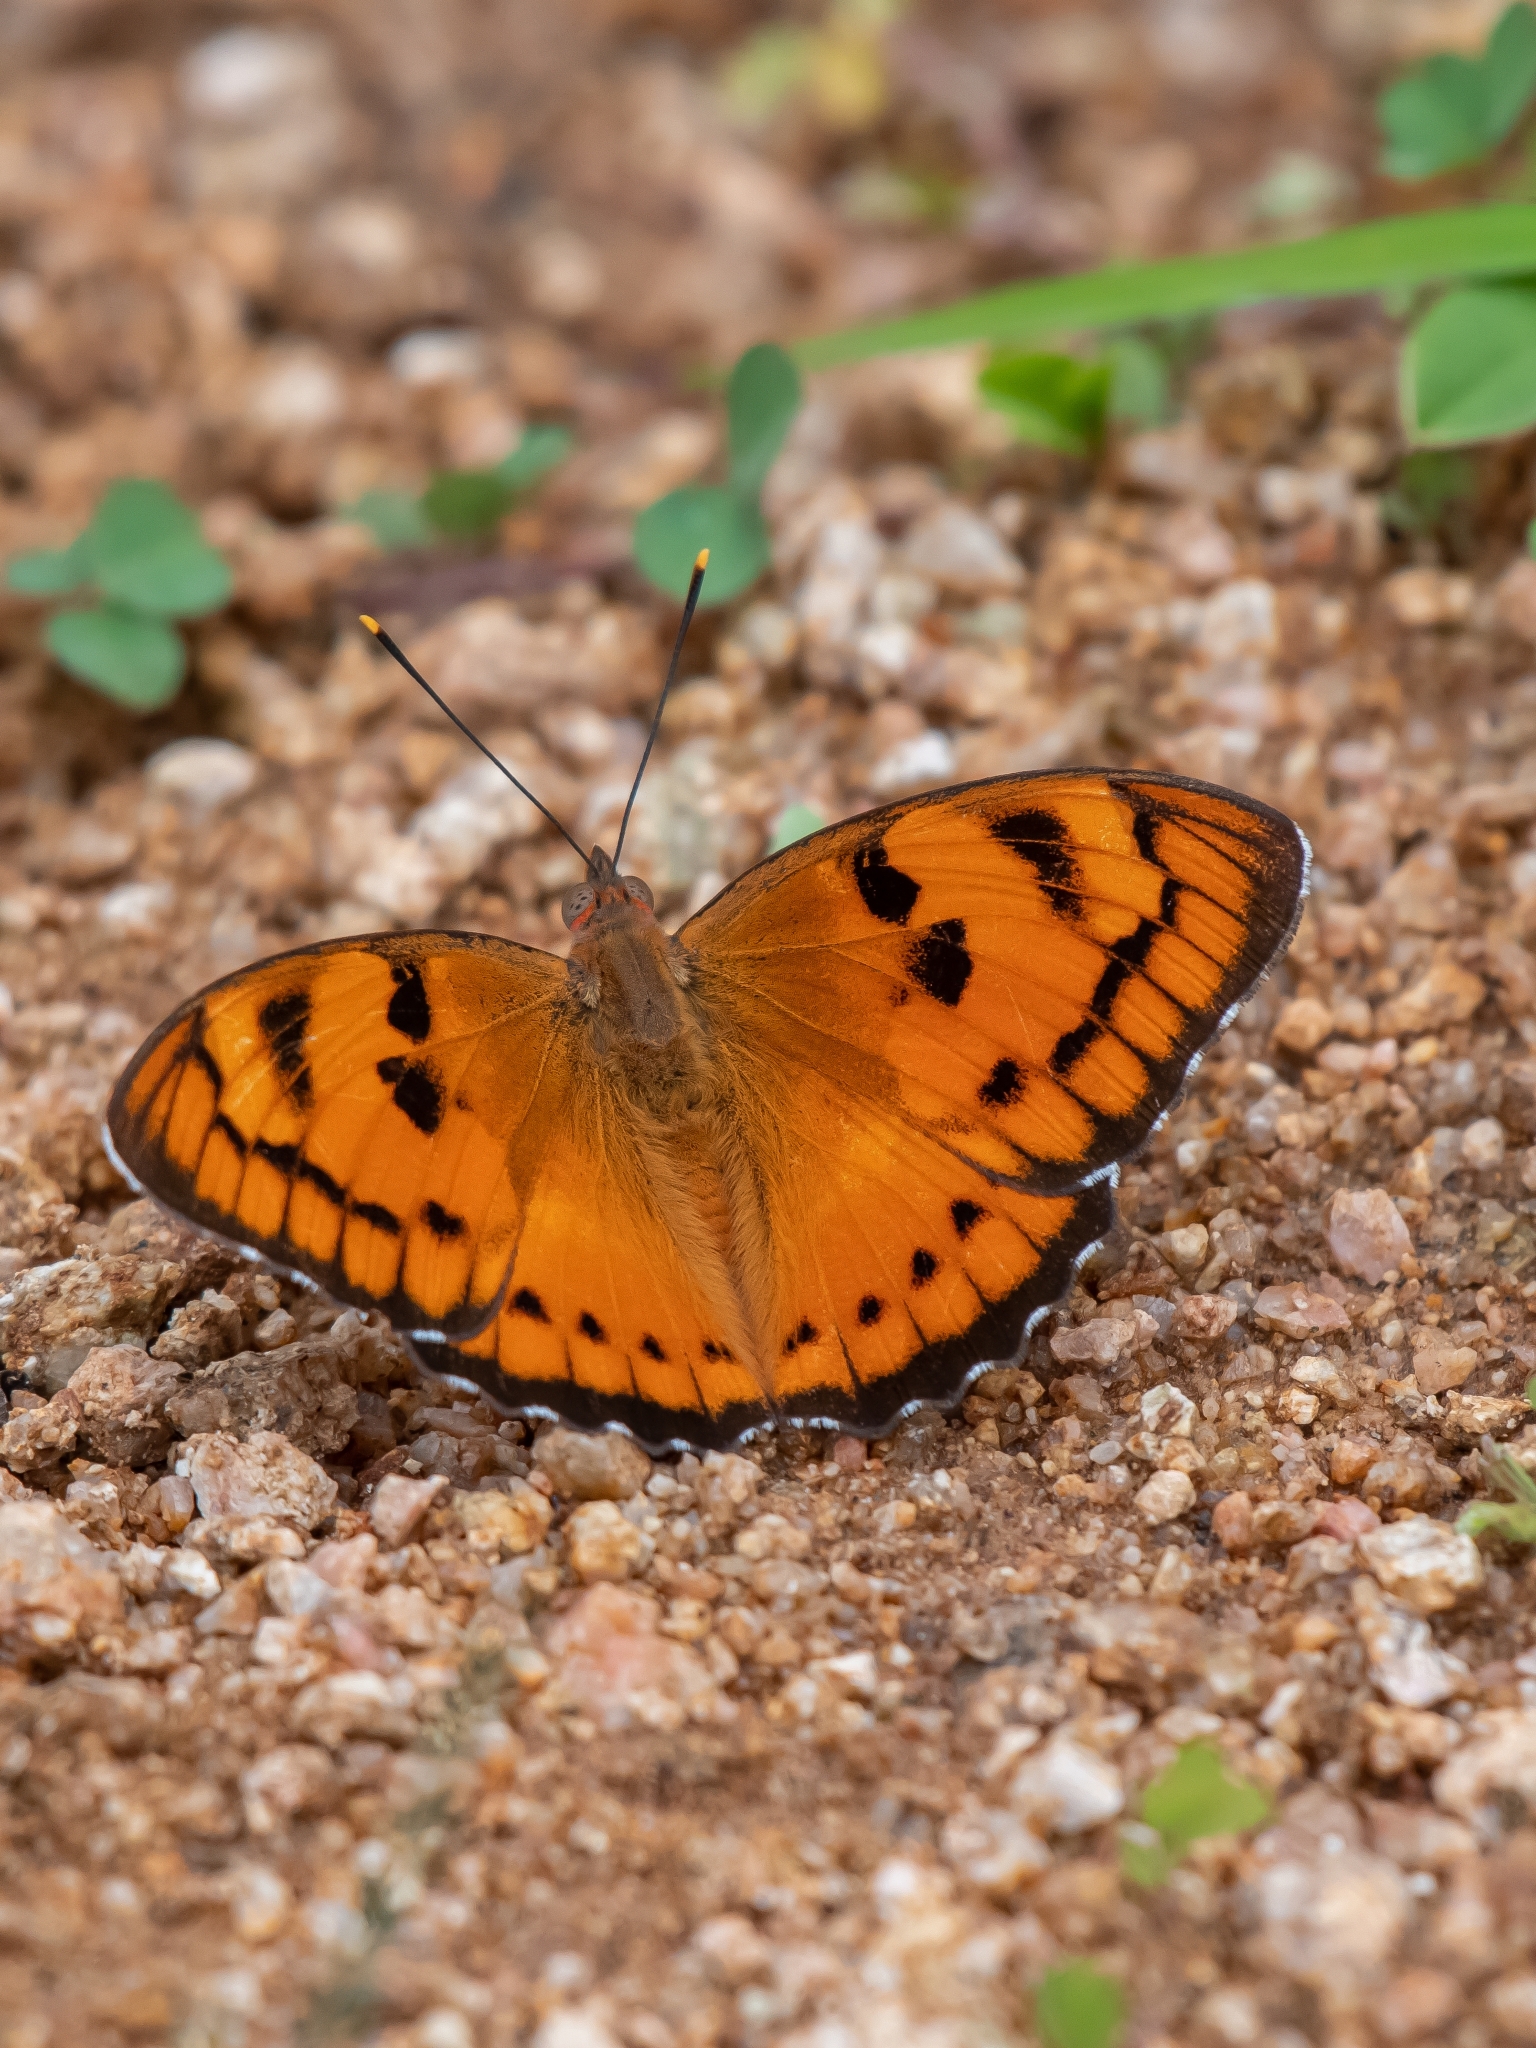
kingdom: Animalia
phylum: Arthropoda
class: Insecta
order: Lepidoptera
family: Nymphalidae
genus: Euthalia
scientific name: Euthalia nais
